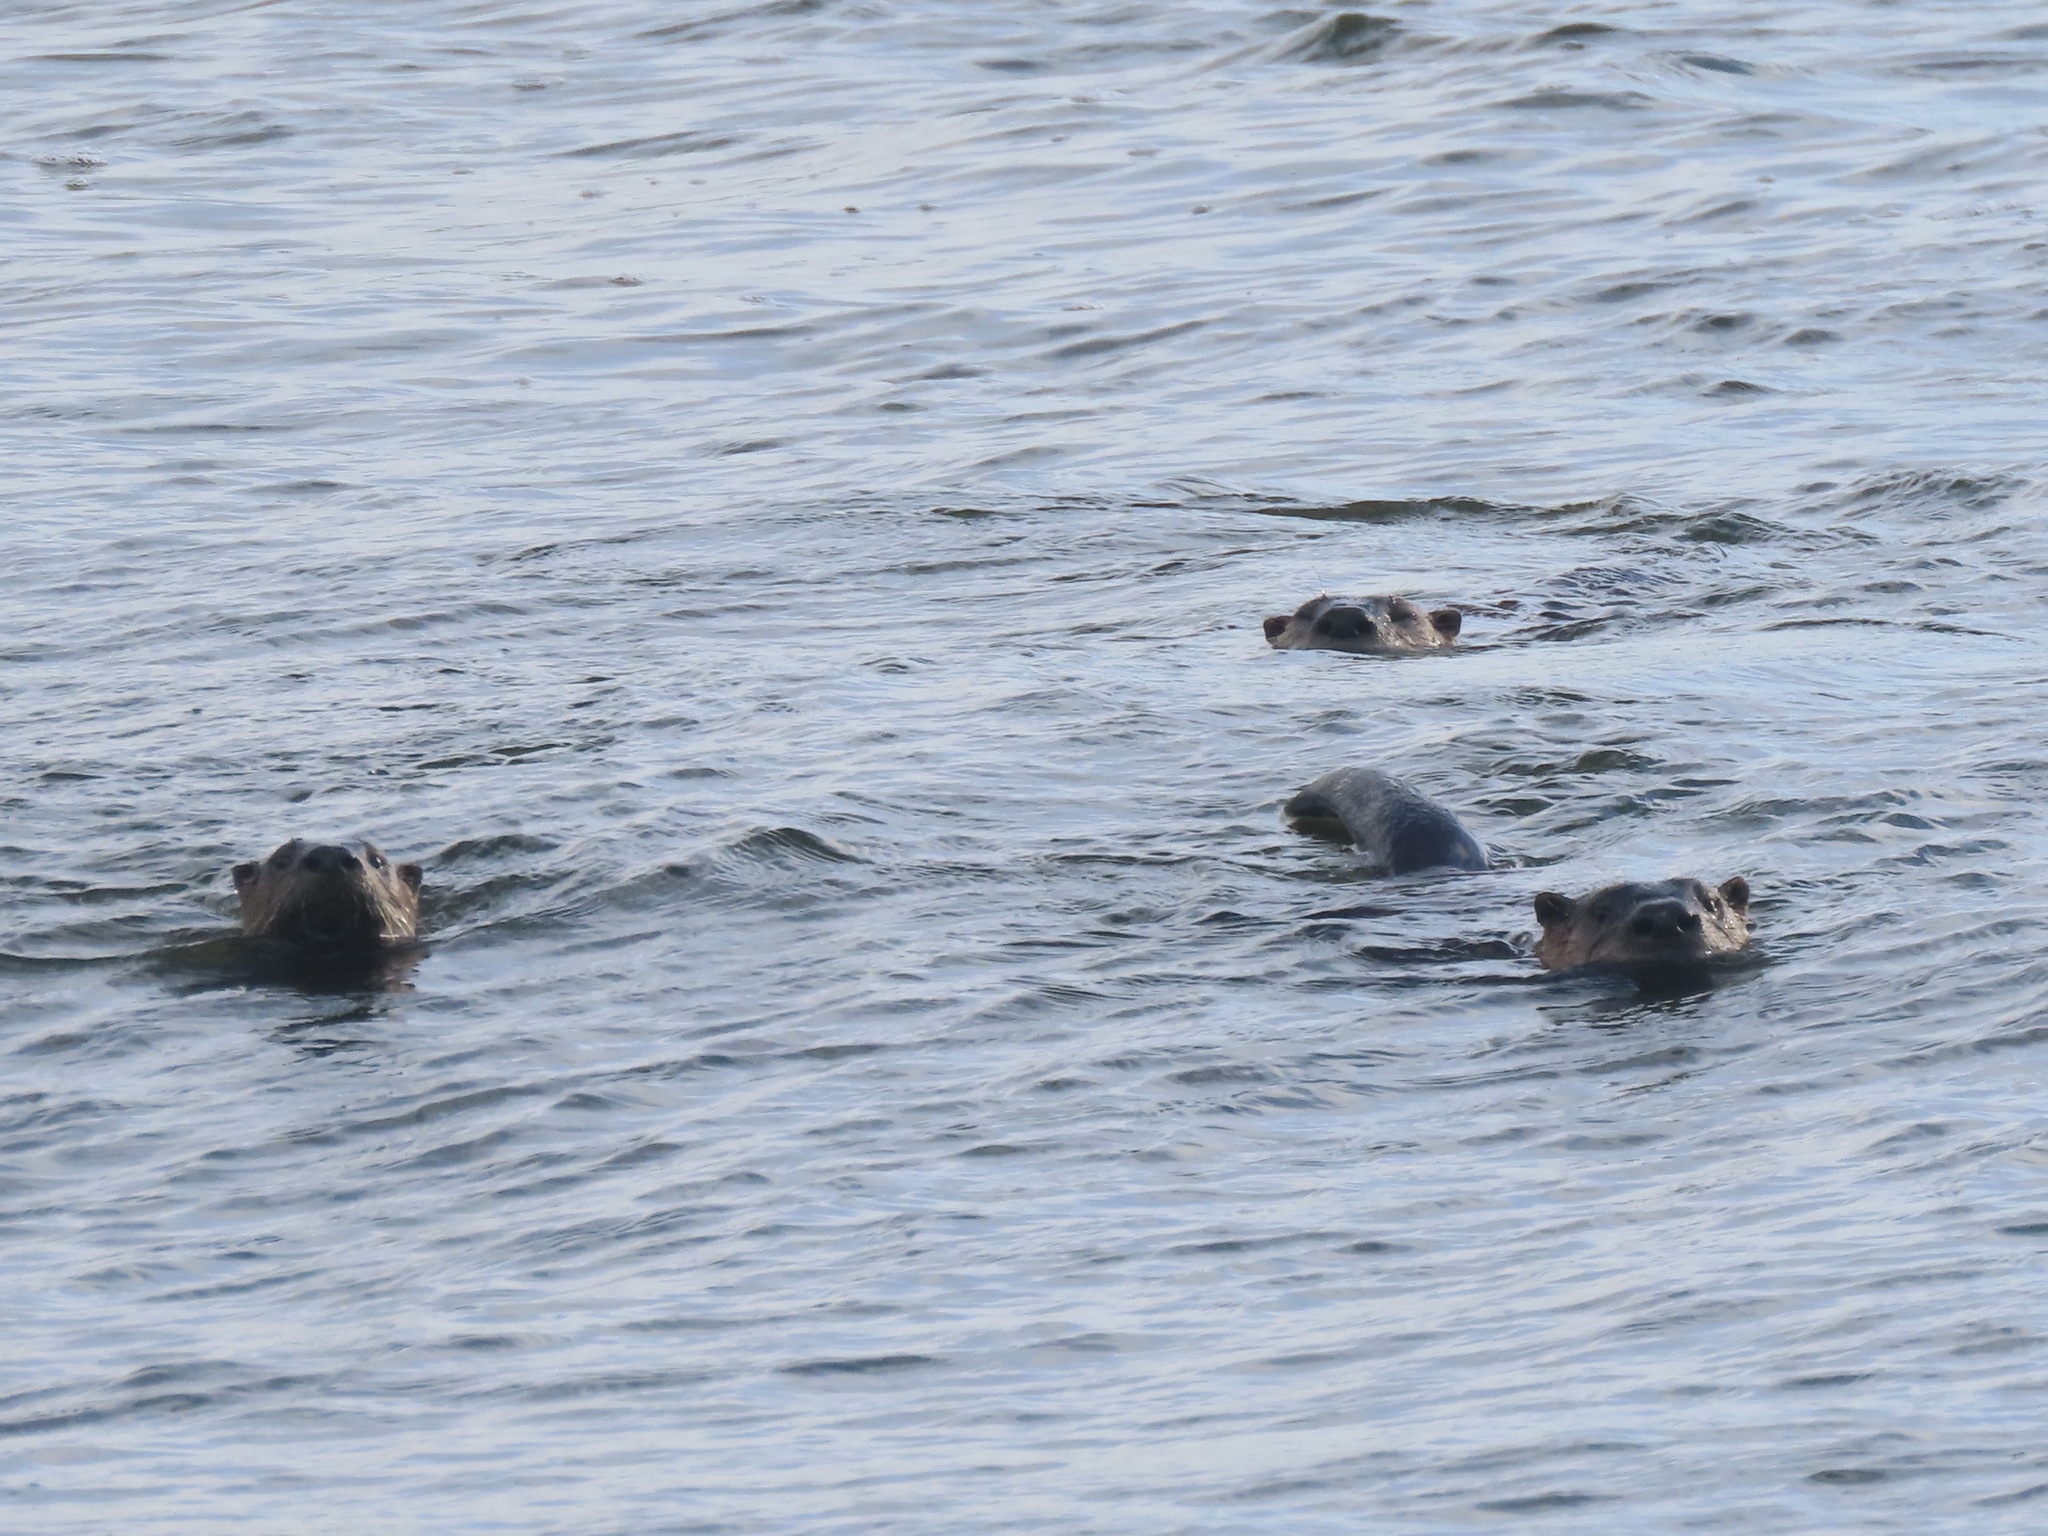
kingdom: Animalia
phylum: Chordata
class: Mammalia
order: Carnivora
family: Mustelidae
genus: Lontra
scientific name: Lontra canadensis
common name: North american river otter
